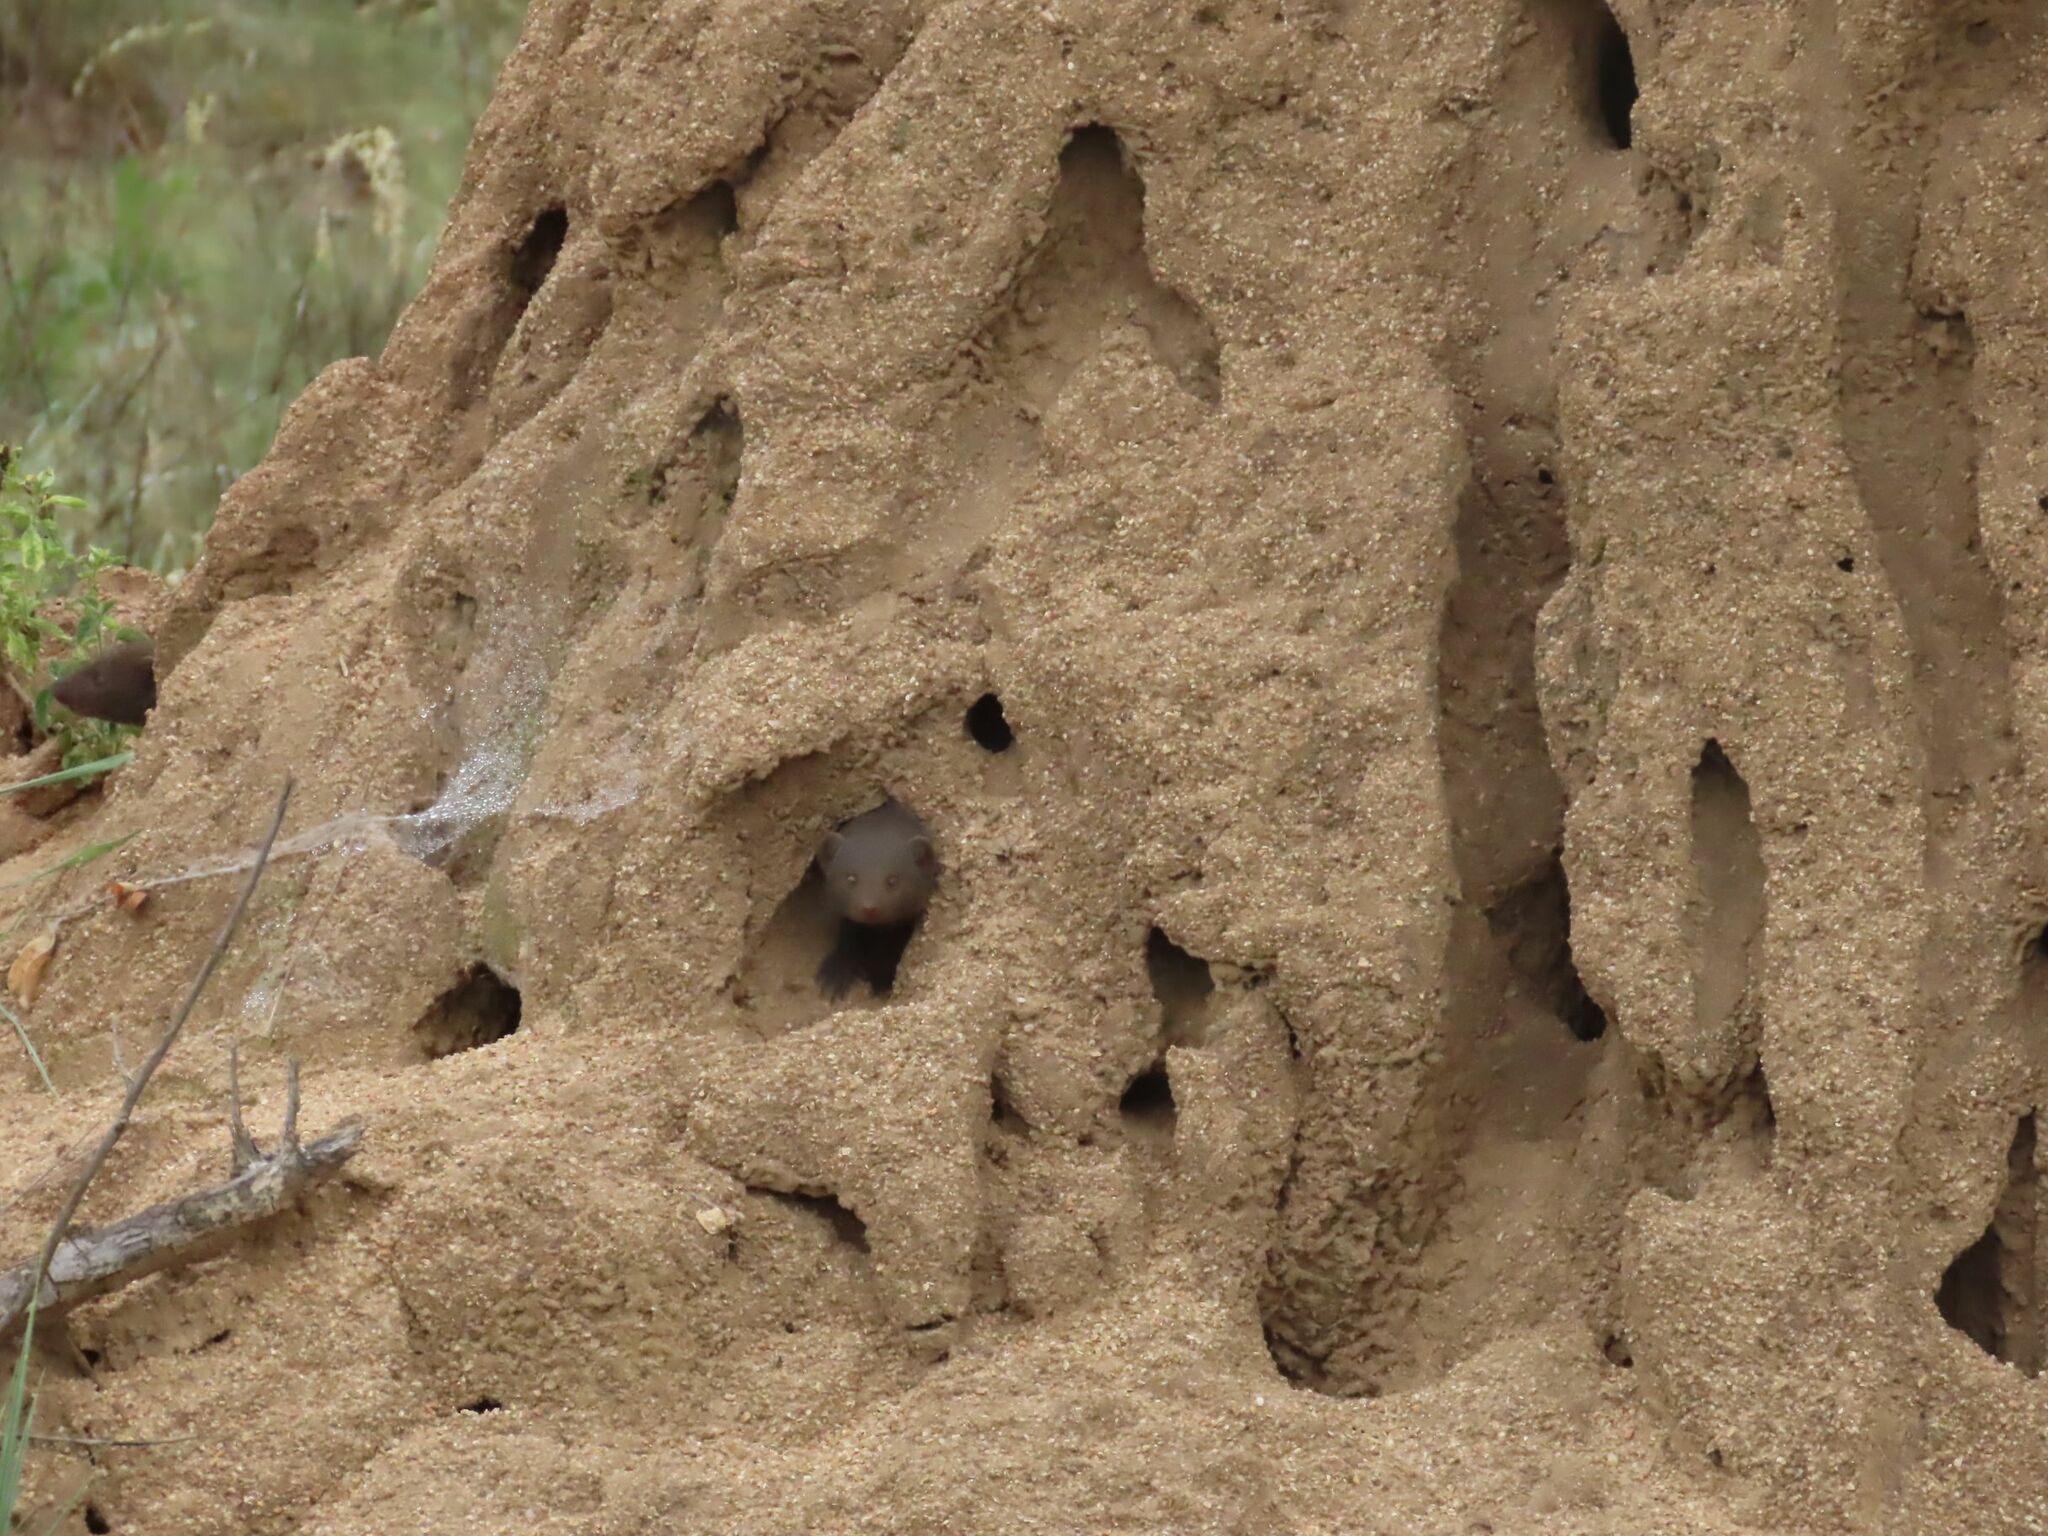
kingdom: Animalia
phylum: Chordata
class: Mammalia
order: Carnivora
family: Herpestidae
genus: Helogale
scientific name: Helogale parvula
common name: Common dwarf mongoose
